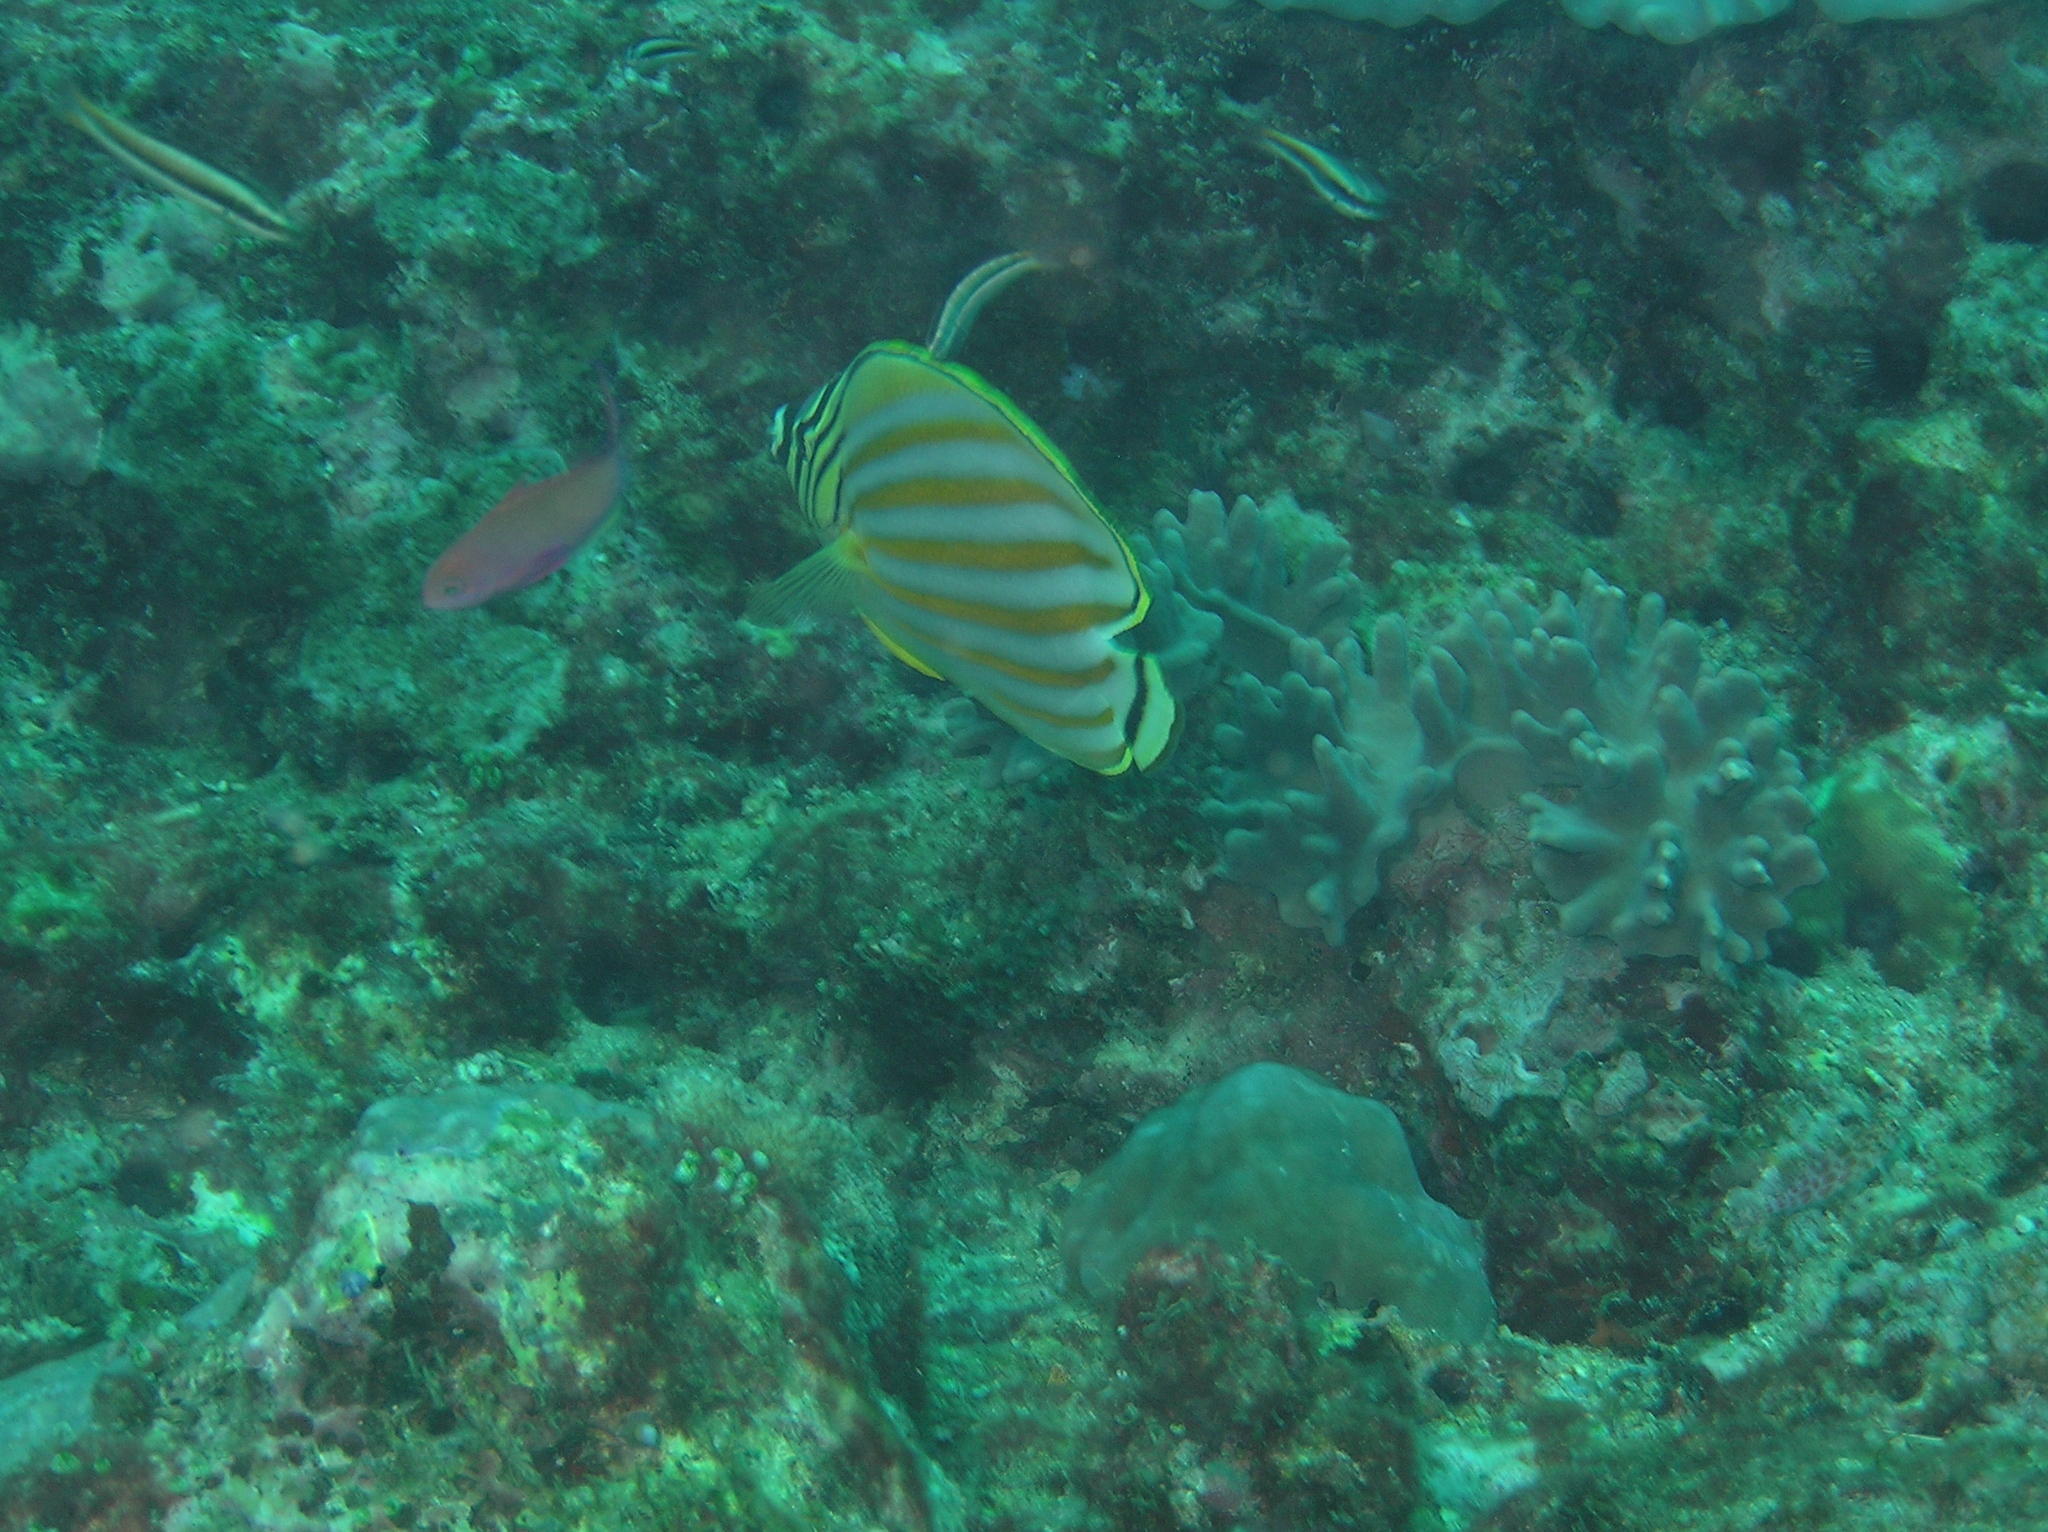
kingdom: Animalia
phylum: Chordata
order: Perciformes
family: Chaetodontidae
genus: Chaetodon
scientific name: Chaetodon ornatissimus
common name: Ornate butterflyfish
